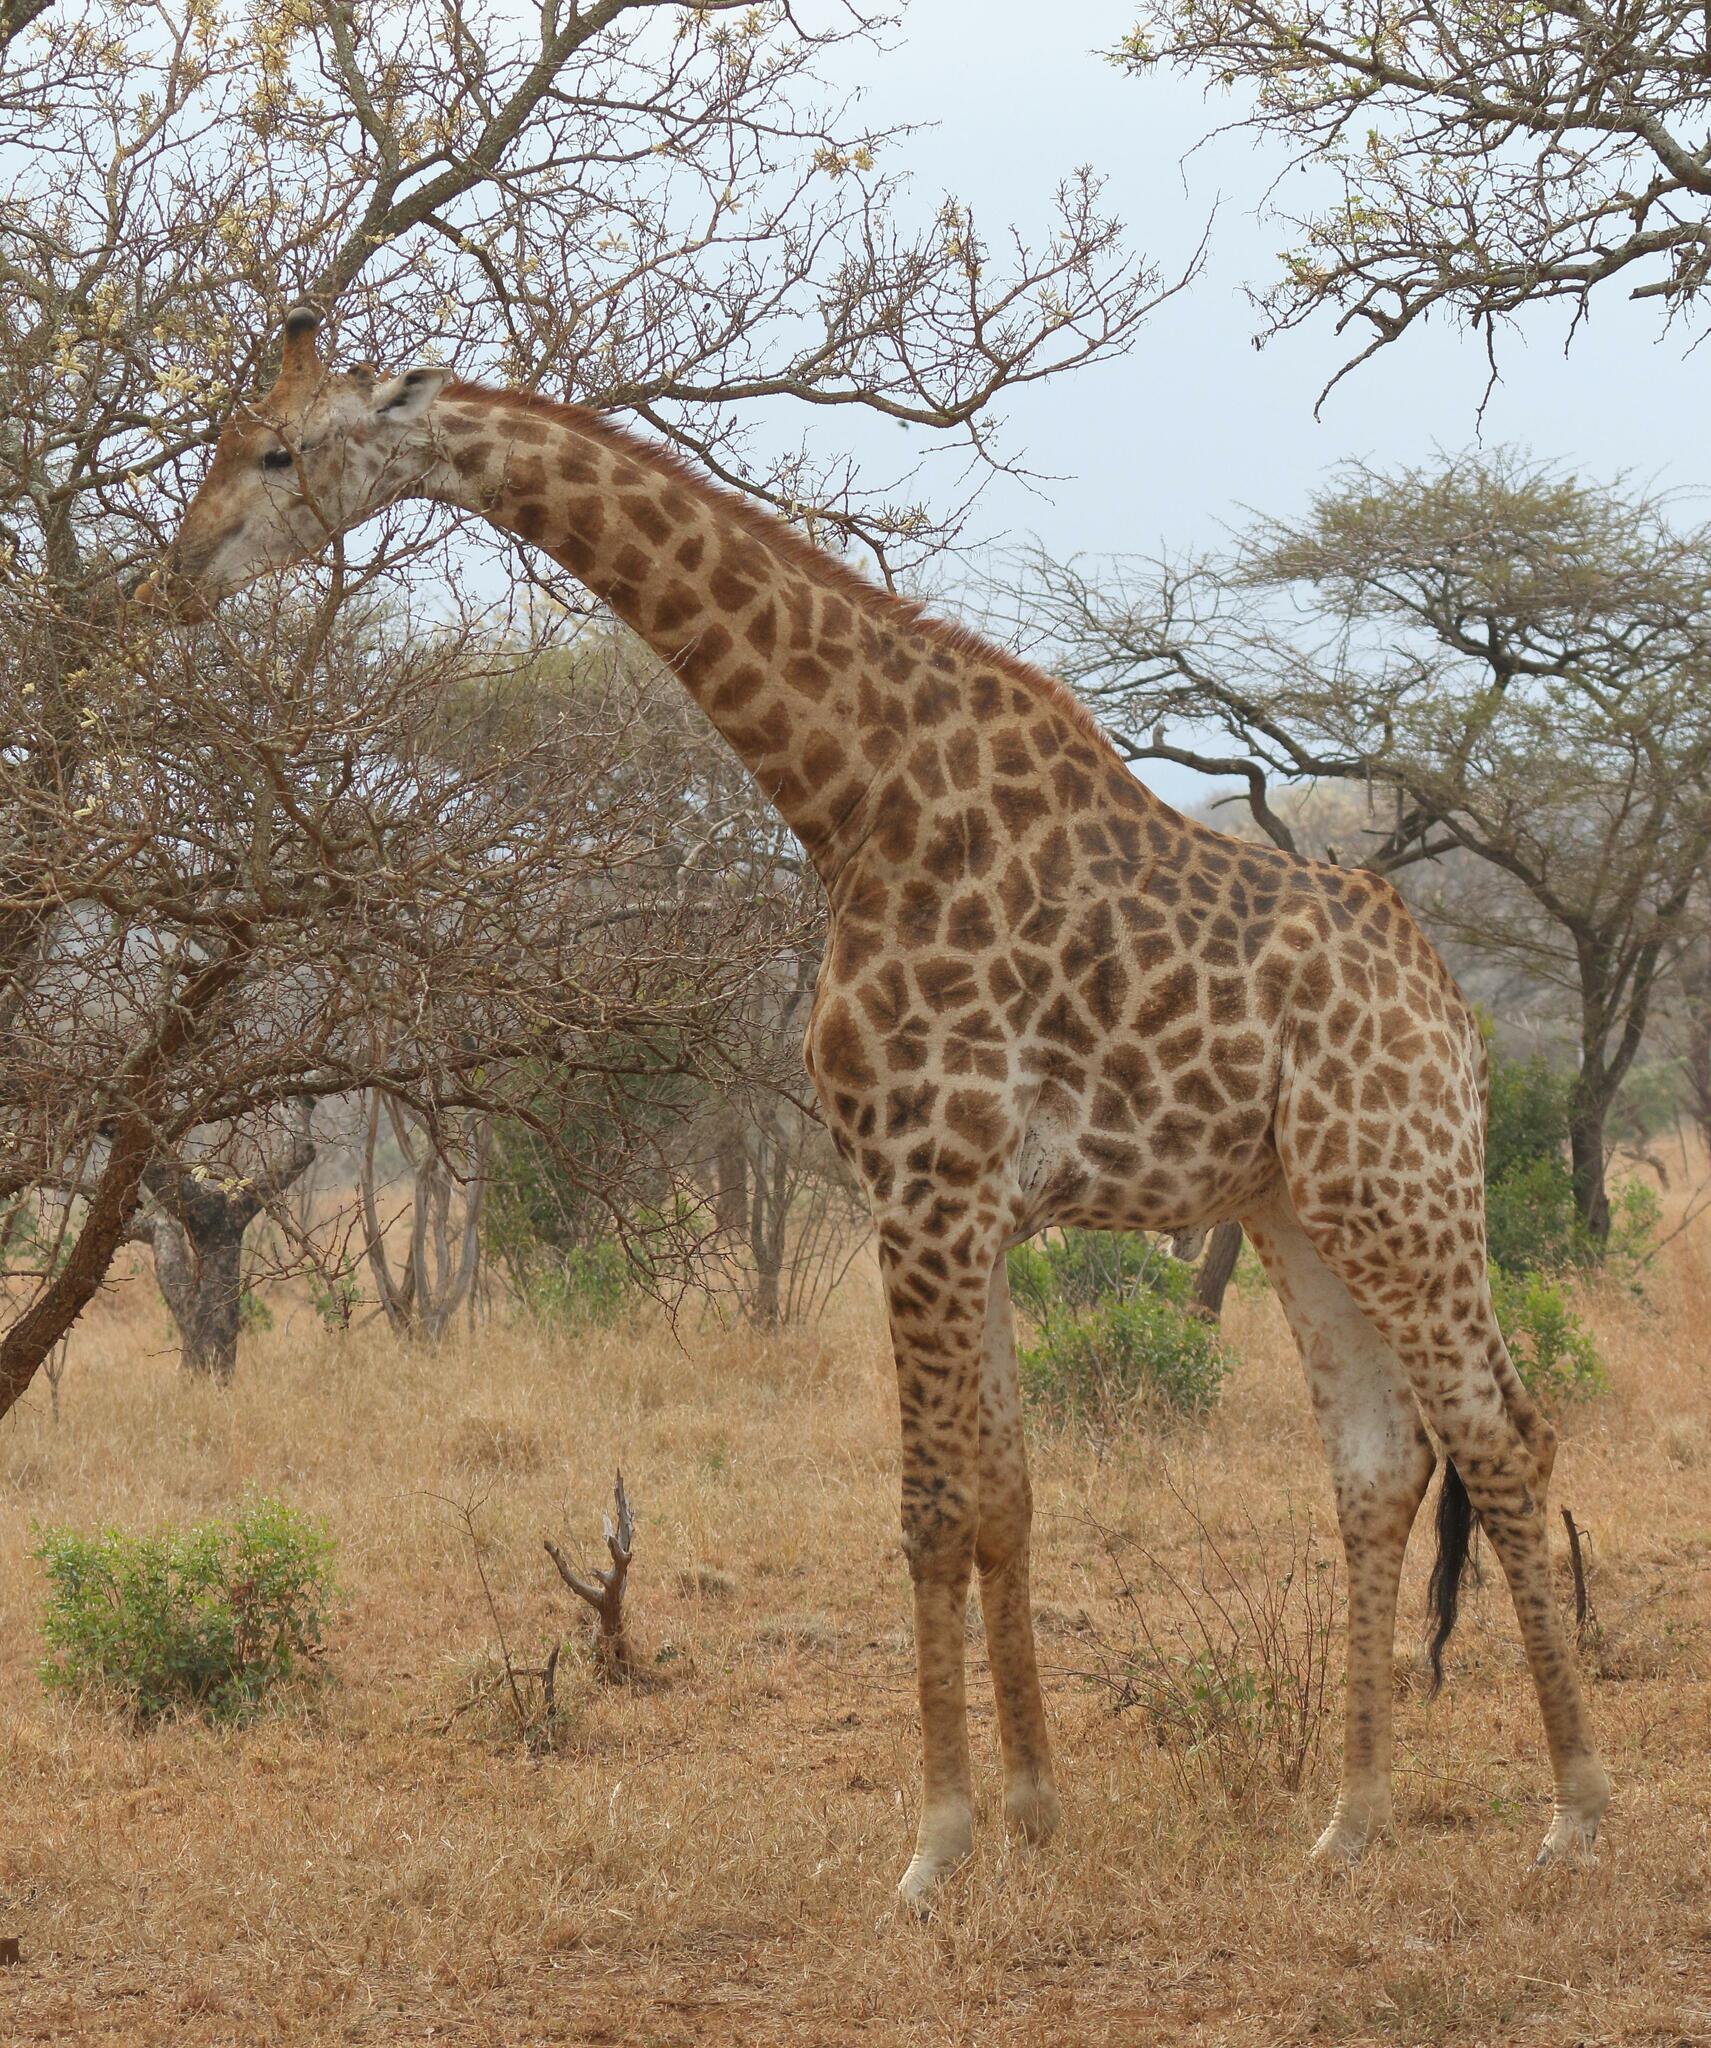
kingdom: Animalia
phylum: Chordata
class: Mammalia
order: Artiodactyla
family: Giraffidae
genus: Giraffa
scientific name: Giraffa giraffa
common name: Southern giraffe
